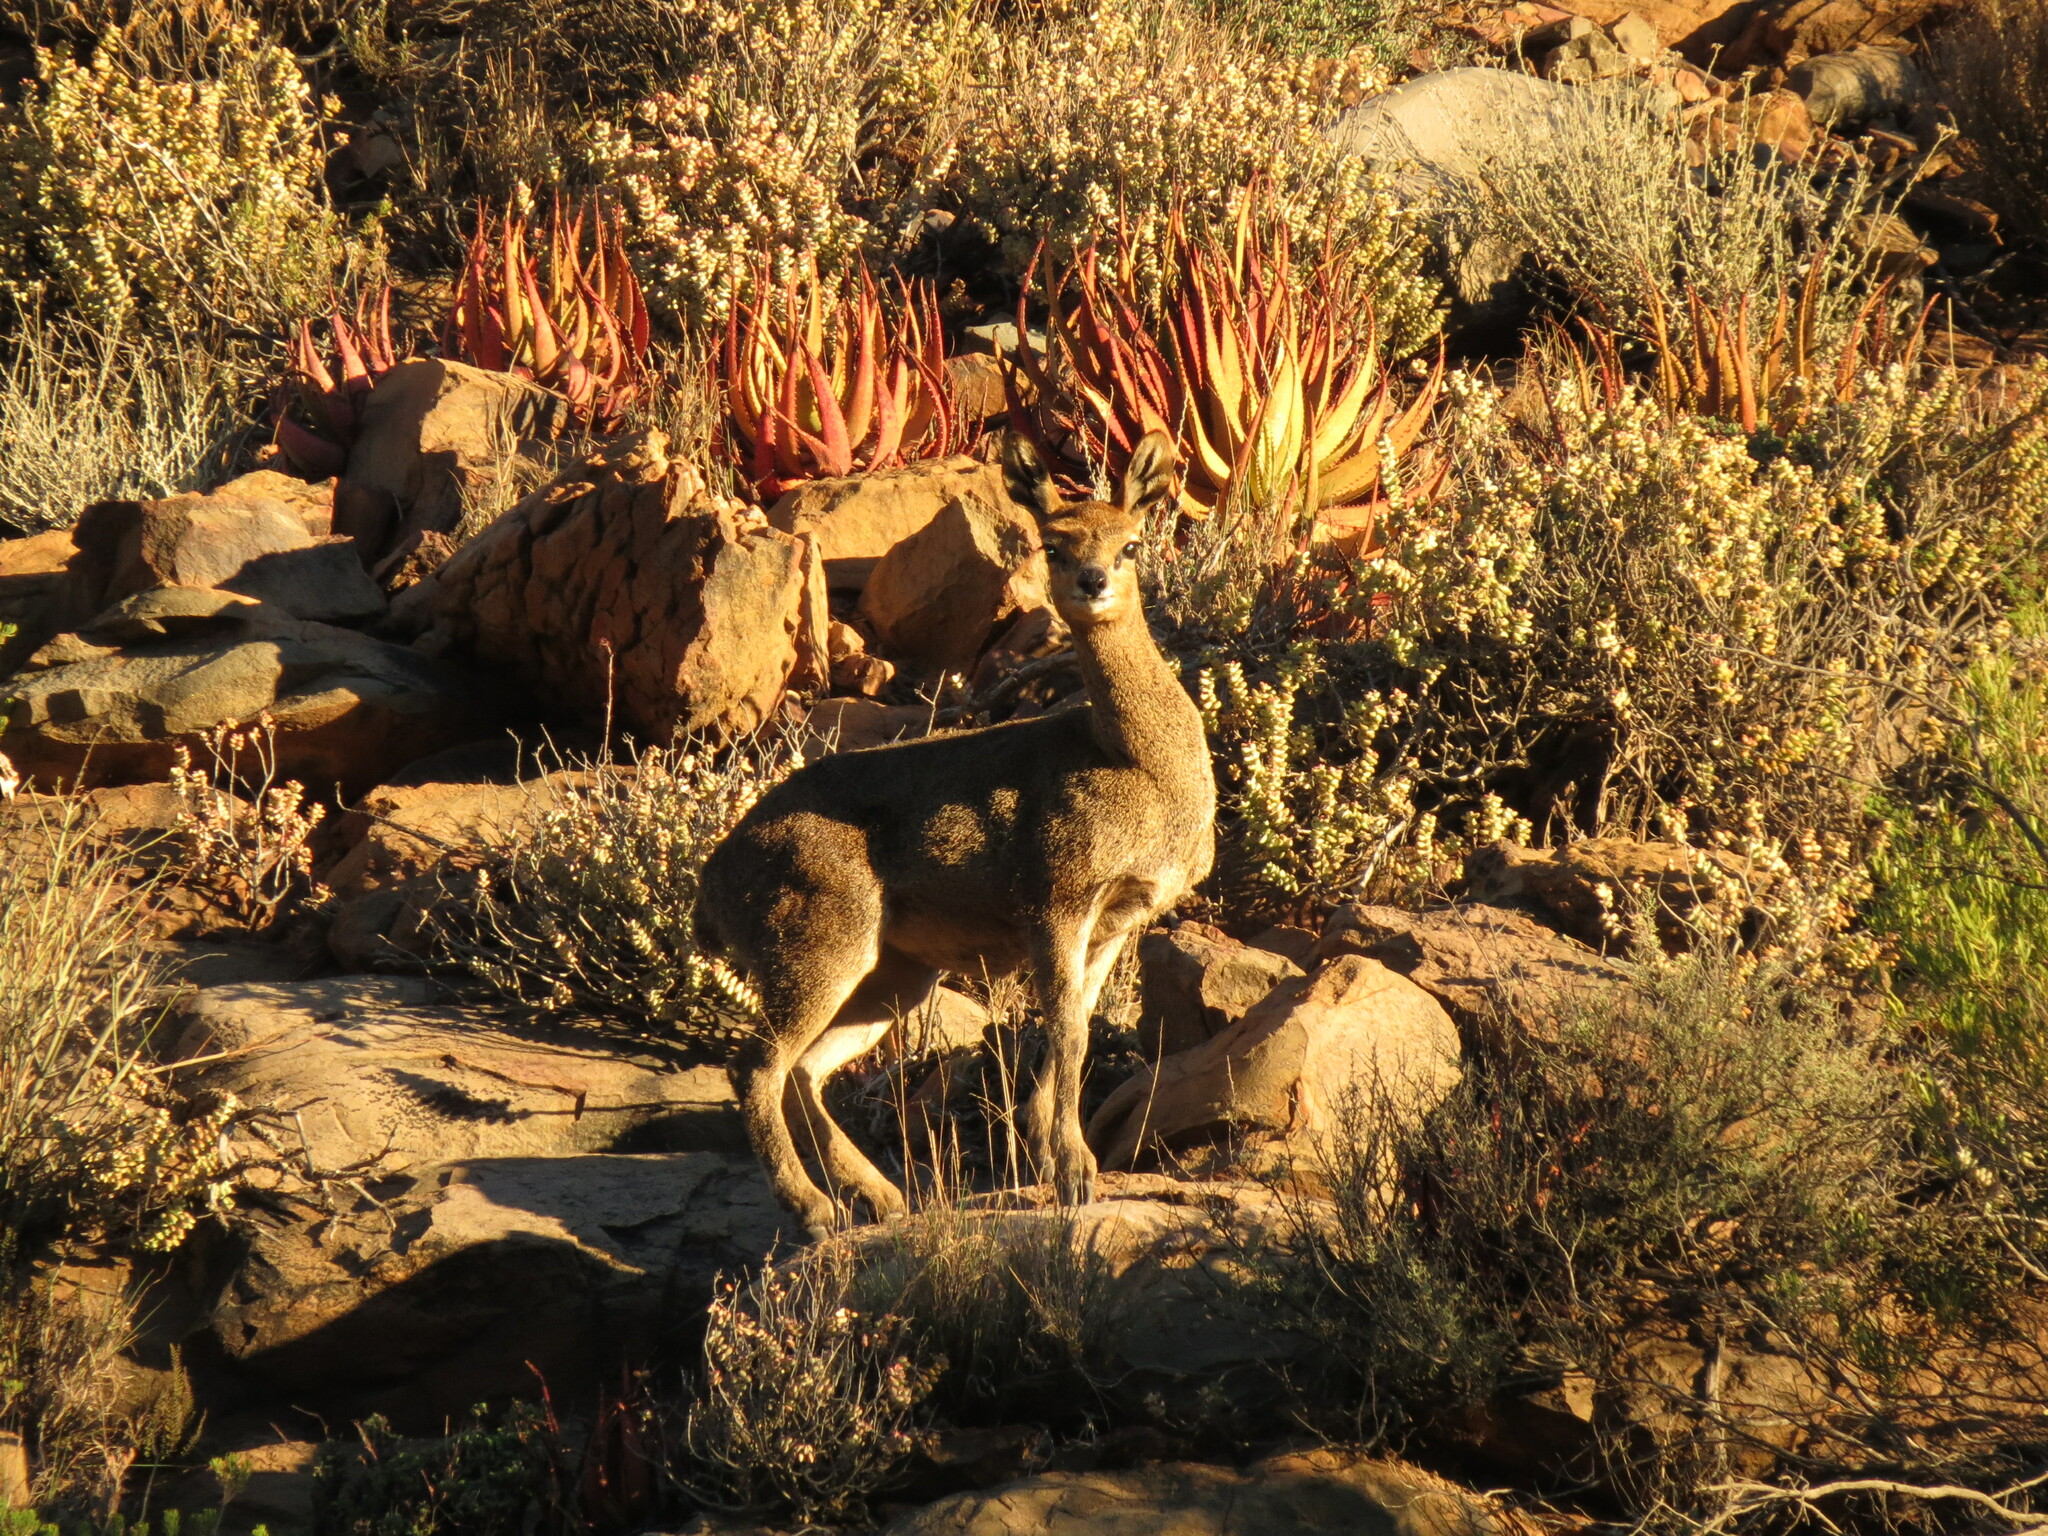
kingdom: Animalia
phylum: Chordata
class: Mammalia
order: Artiodactyla
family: Bovidae
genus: Oreotragus
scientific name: Oreotragus oreotragus
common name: Klipspringer
